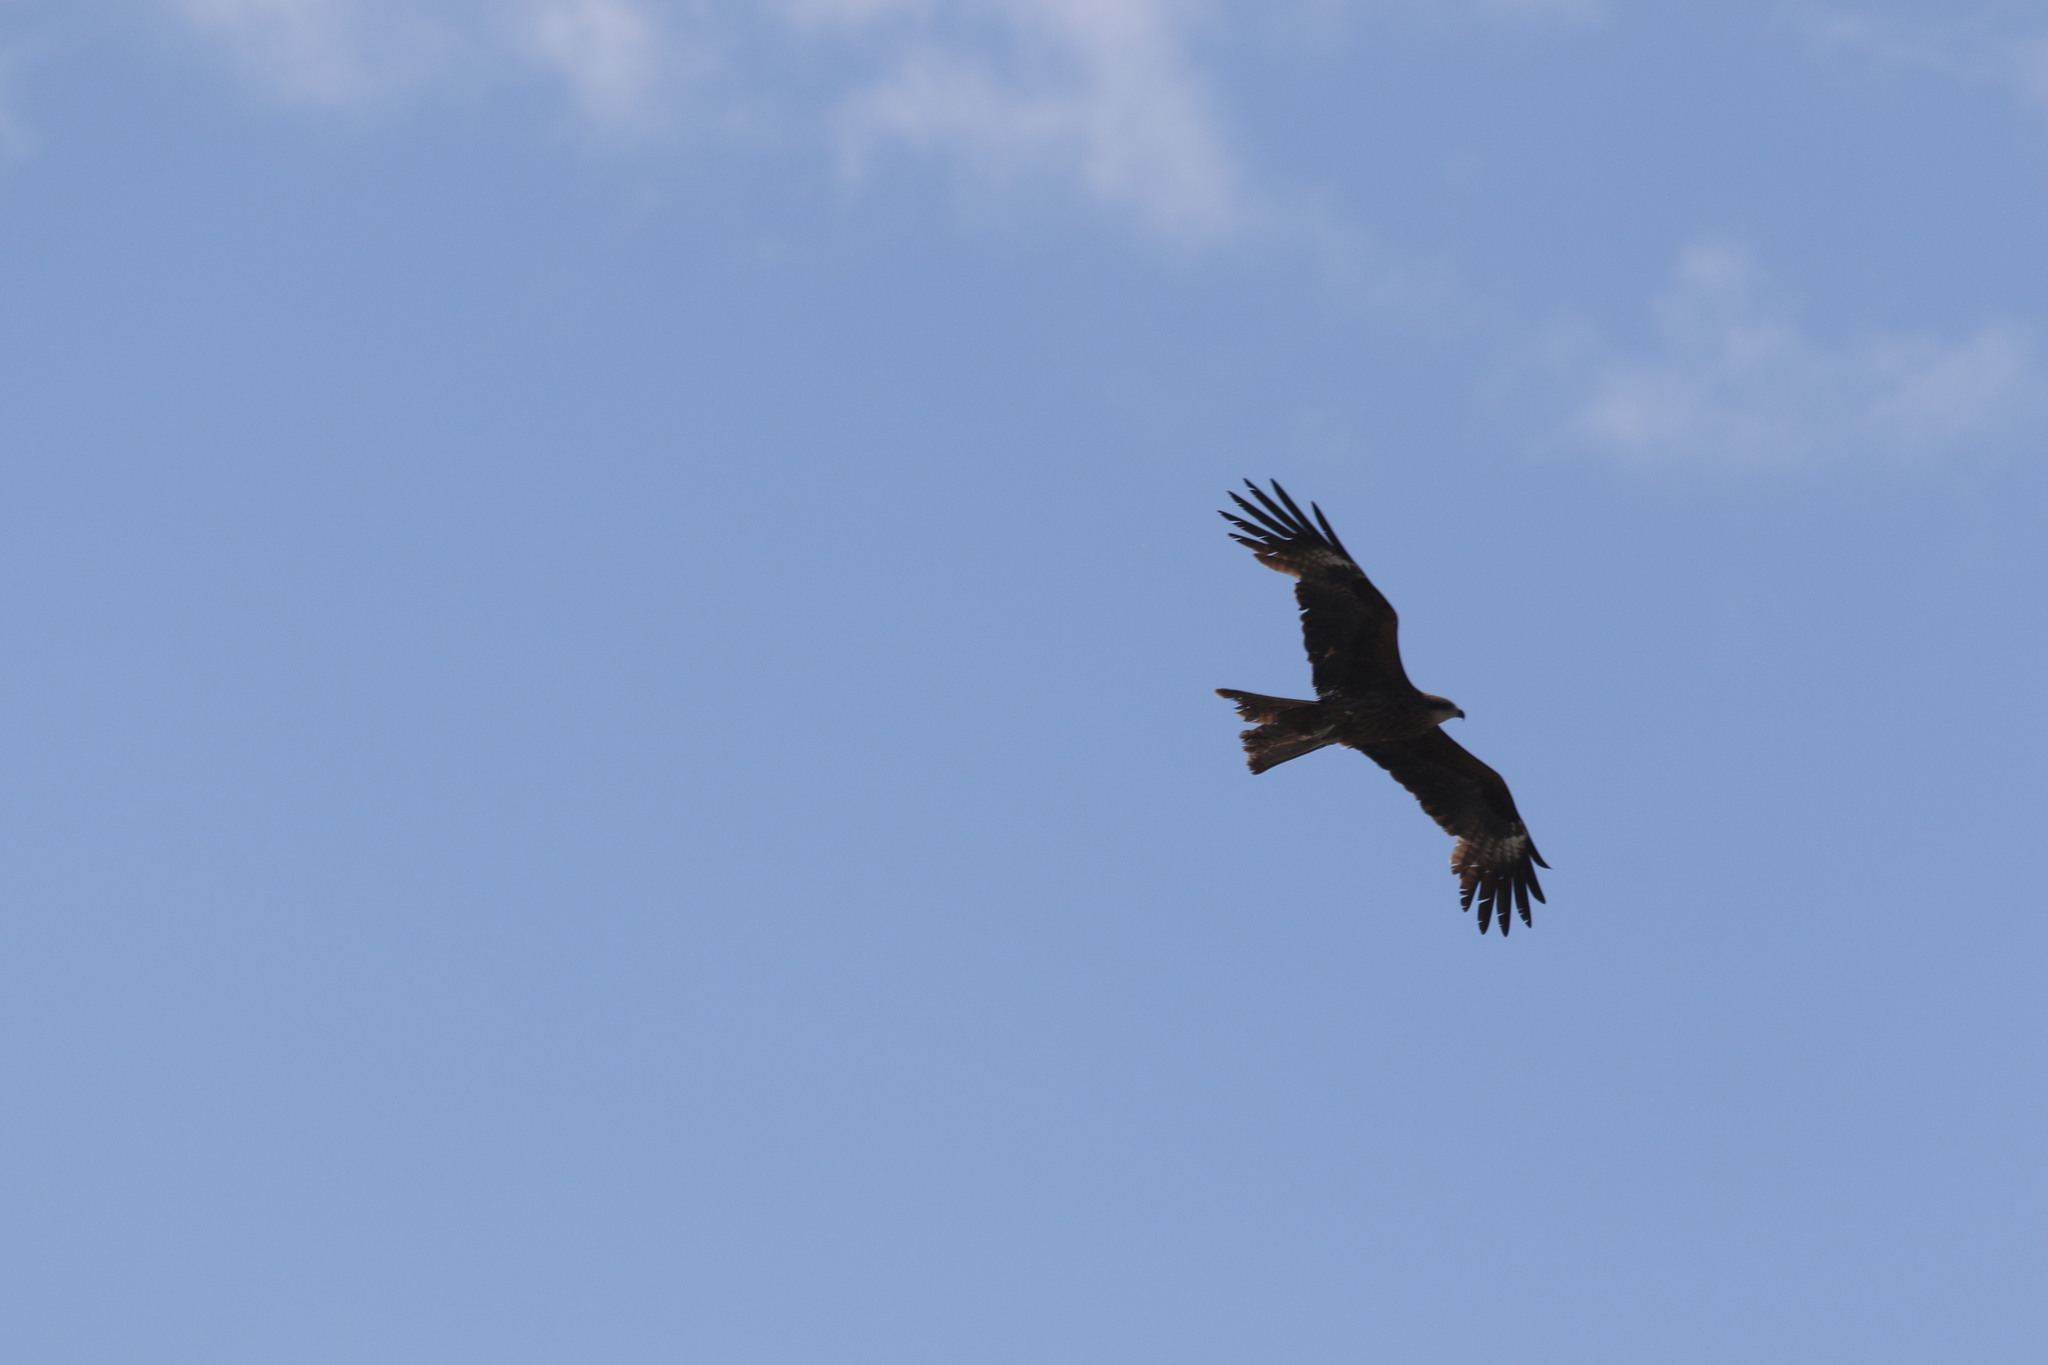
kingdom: Animalia
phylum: Chordata
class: Aves
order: Accipitriformes
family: Accipitridae
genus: Milvus
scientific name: Milvus migrans
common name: Black kite
